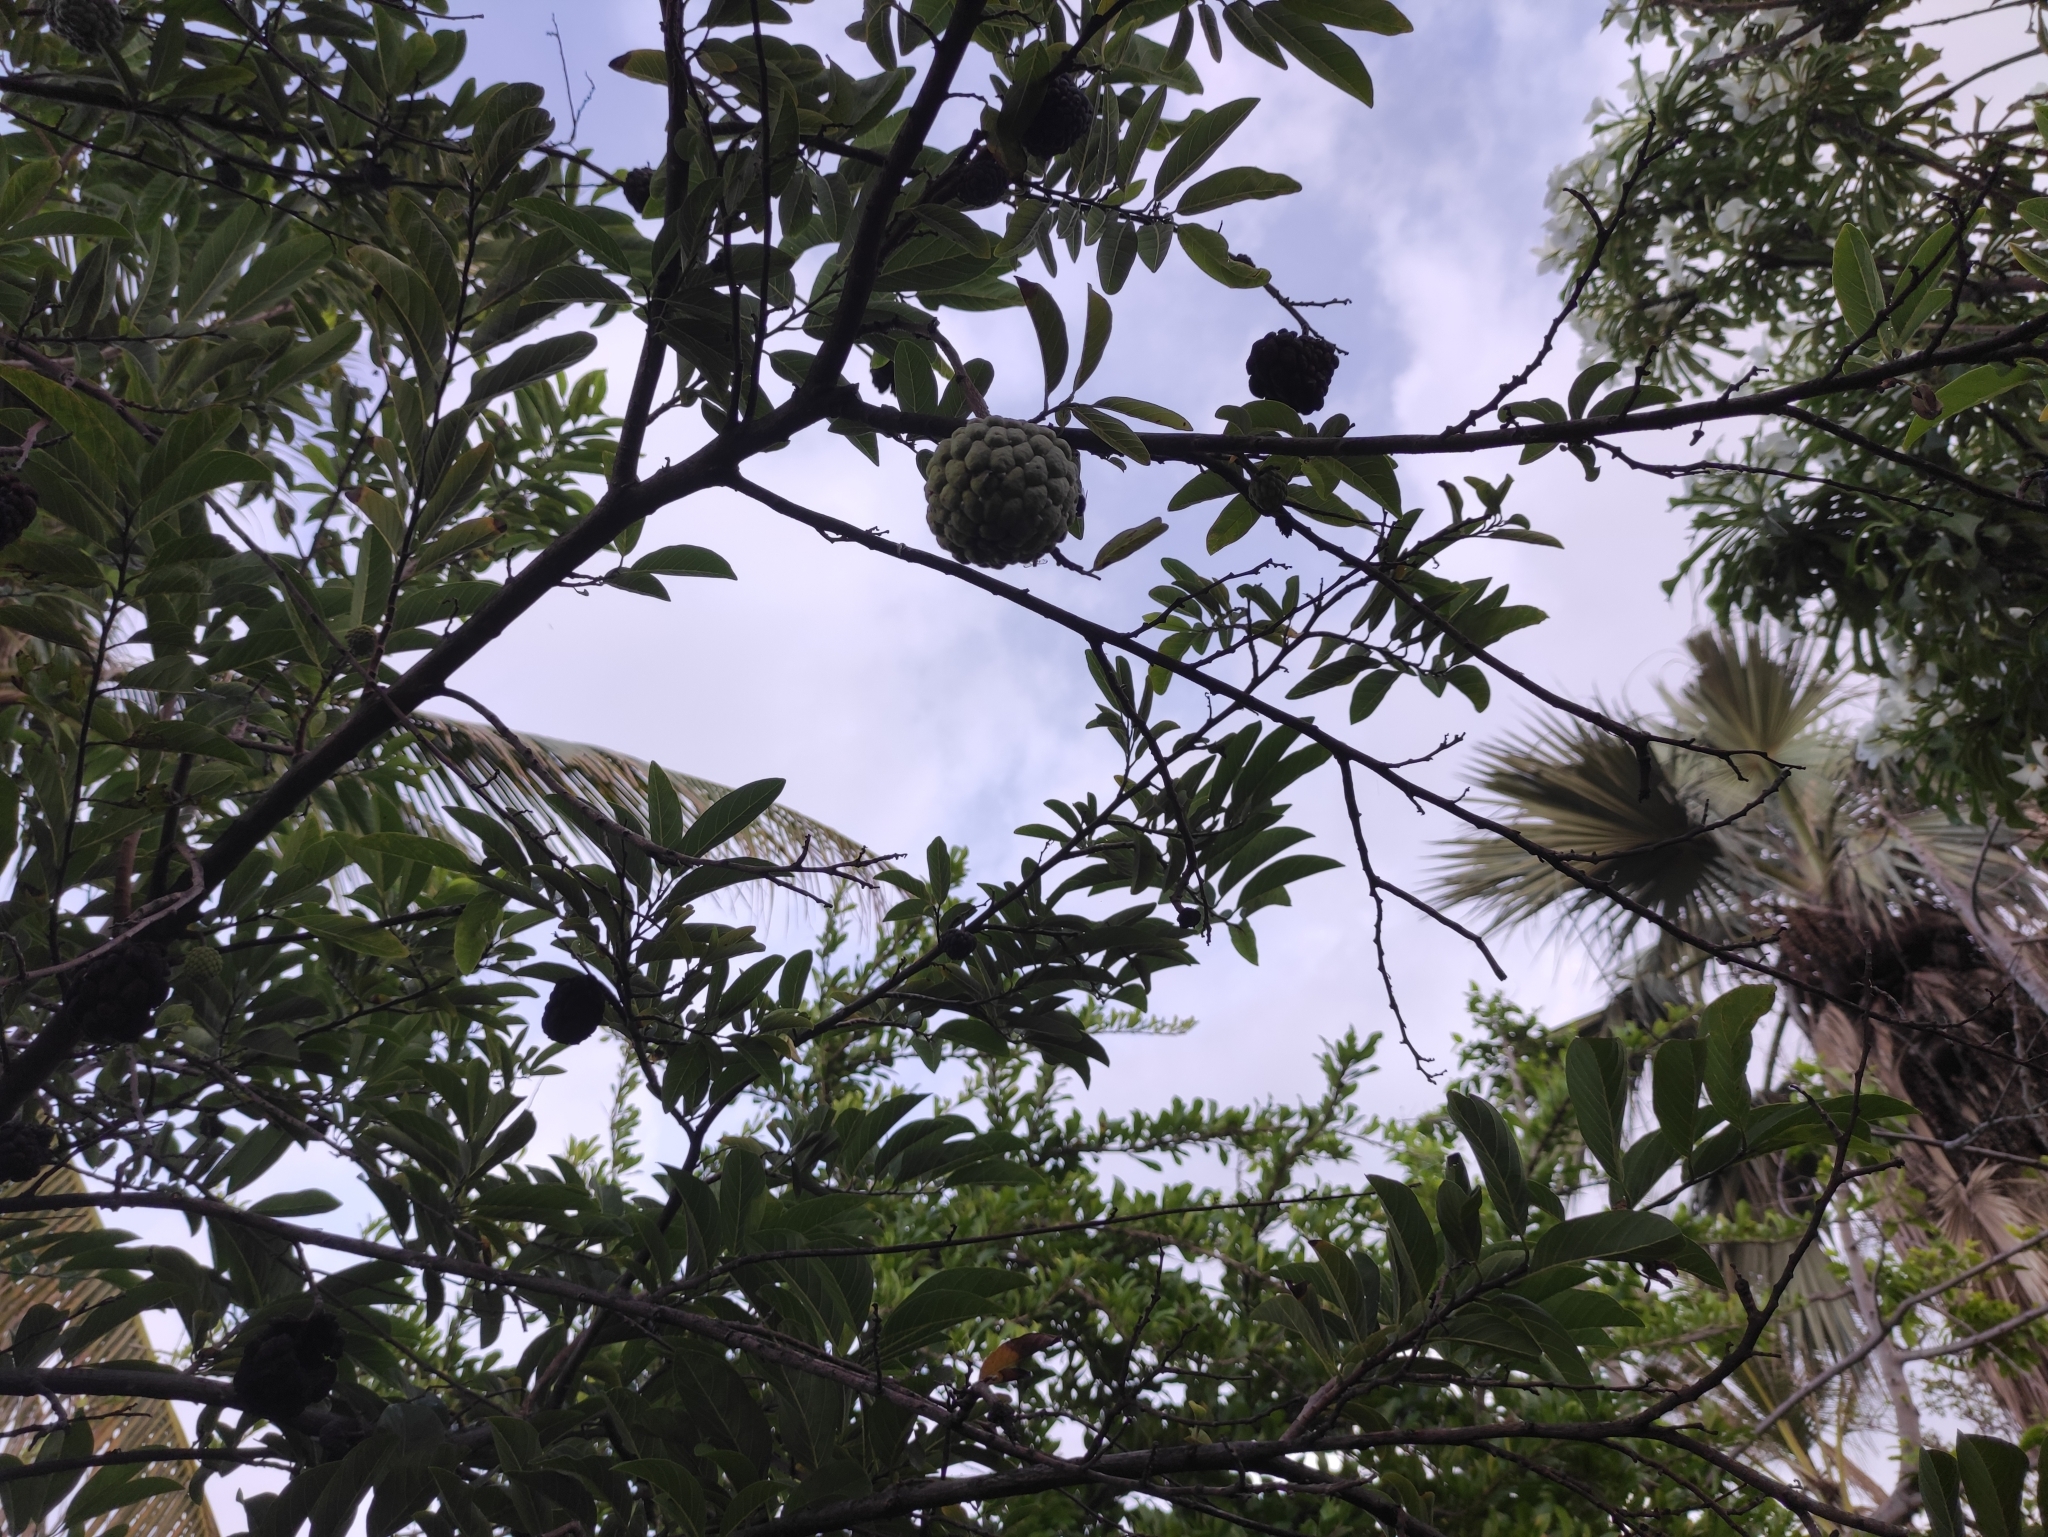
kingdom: Plantae
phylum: Tracheophyta
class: Magnoliopsida
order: Magnoliales
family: Annonaceae
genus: Annona
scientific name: Annona squamosa
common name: Custard-apple
